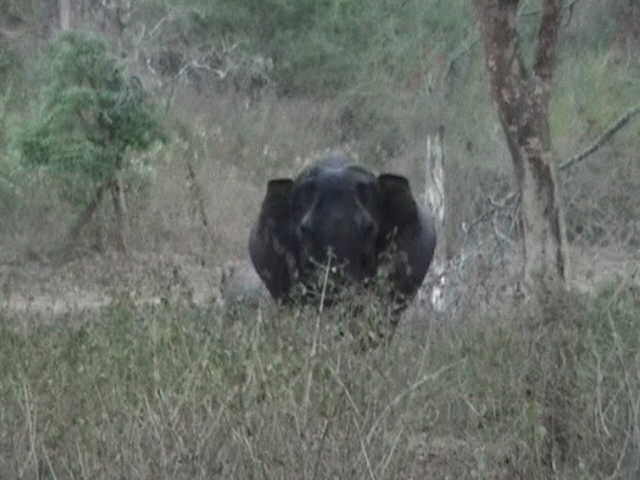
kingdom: Animalia
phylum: Chordata
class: Mammalia
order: Proboscidea
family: Elephantidae
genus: Elephas
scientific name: Elephas maximus
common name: Asian elephant
